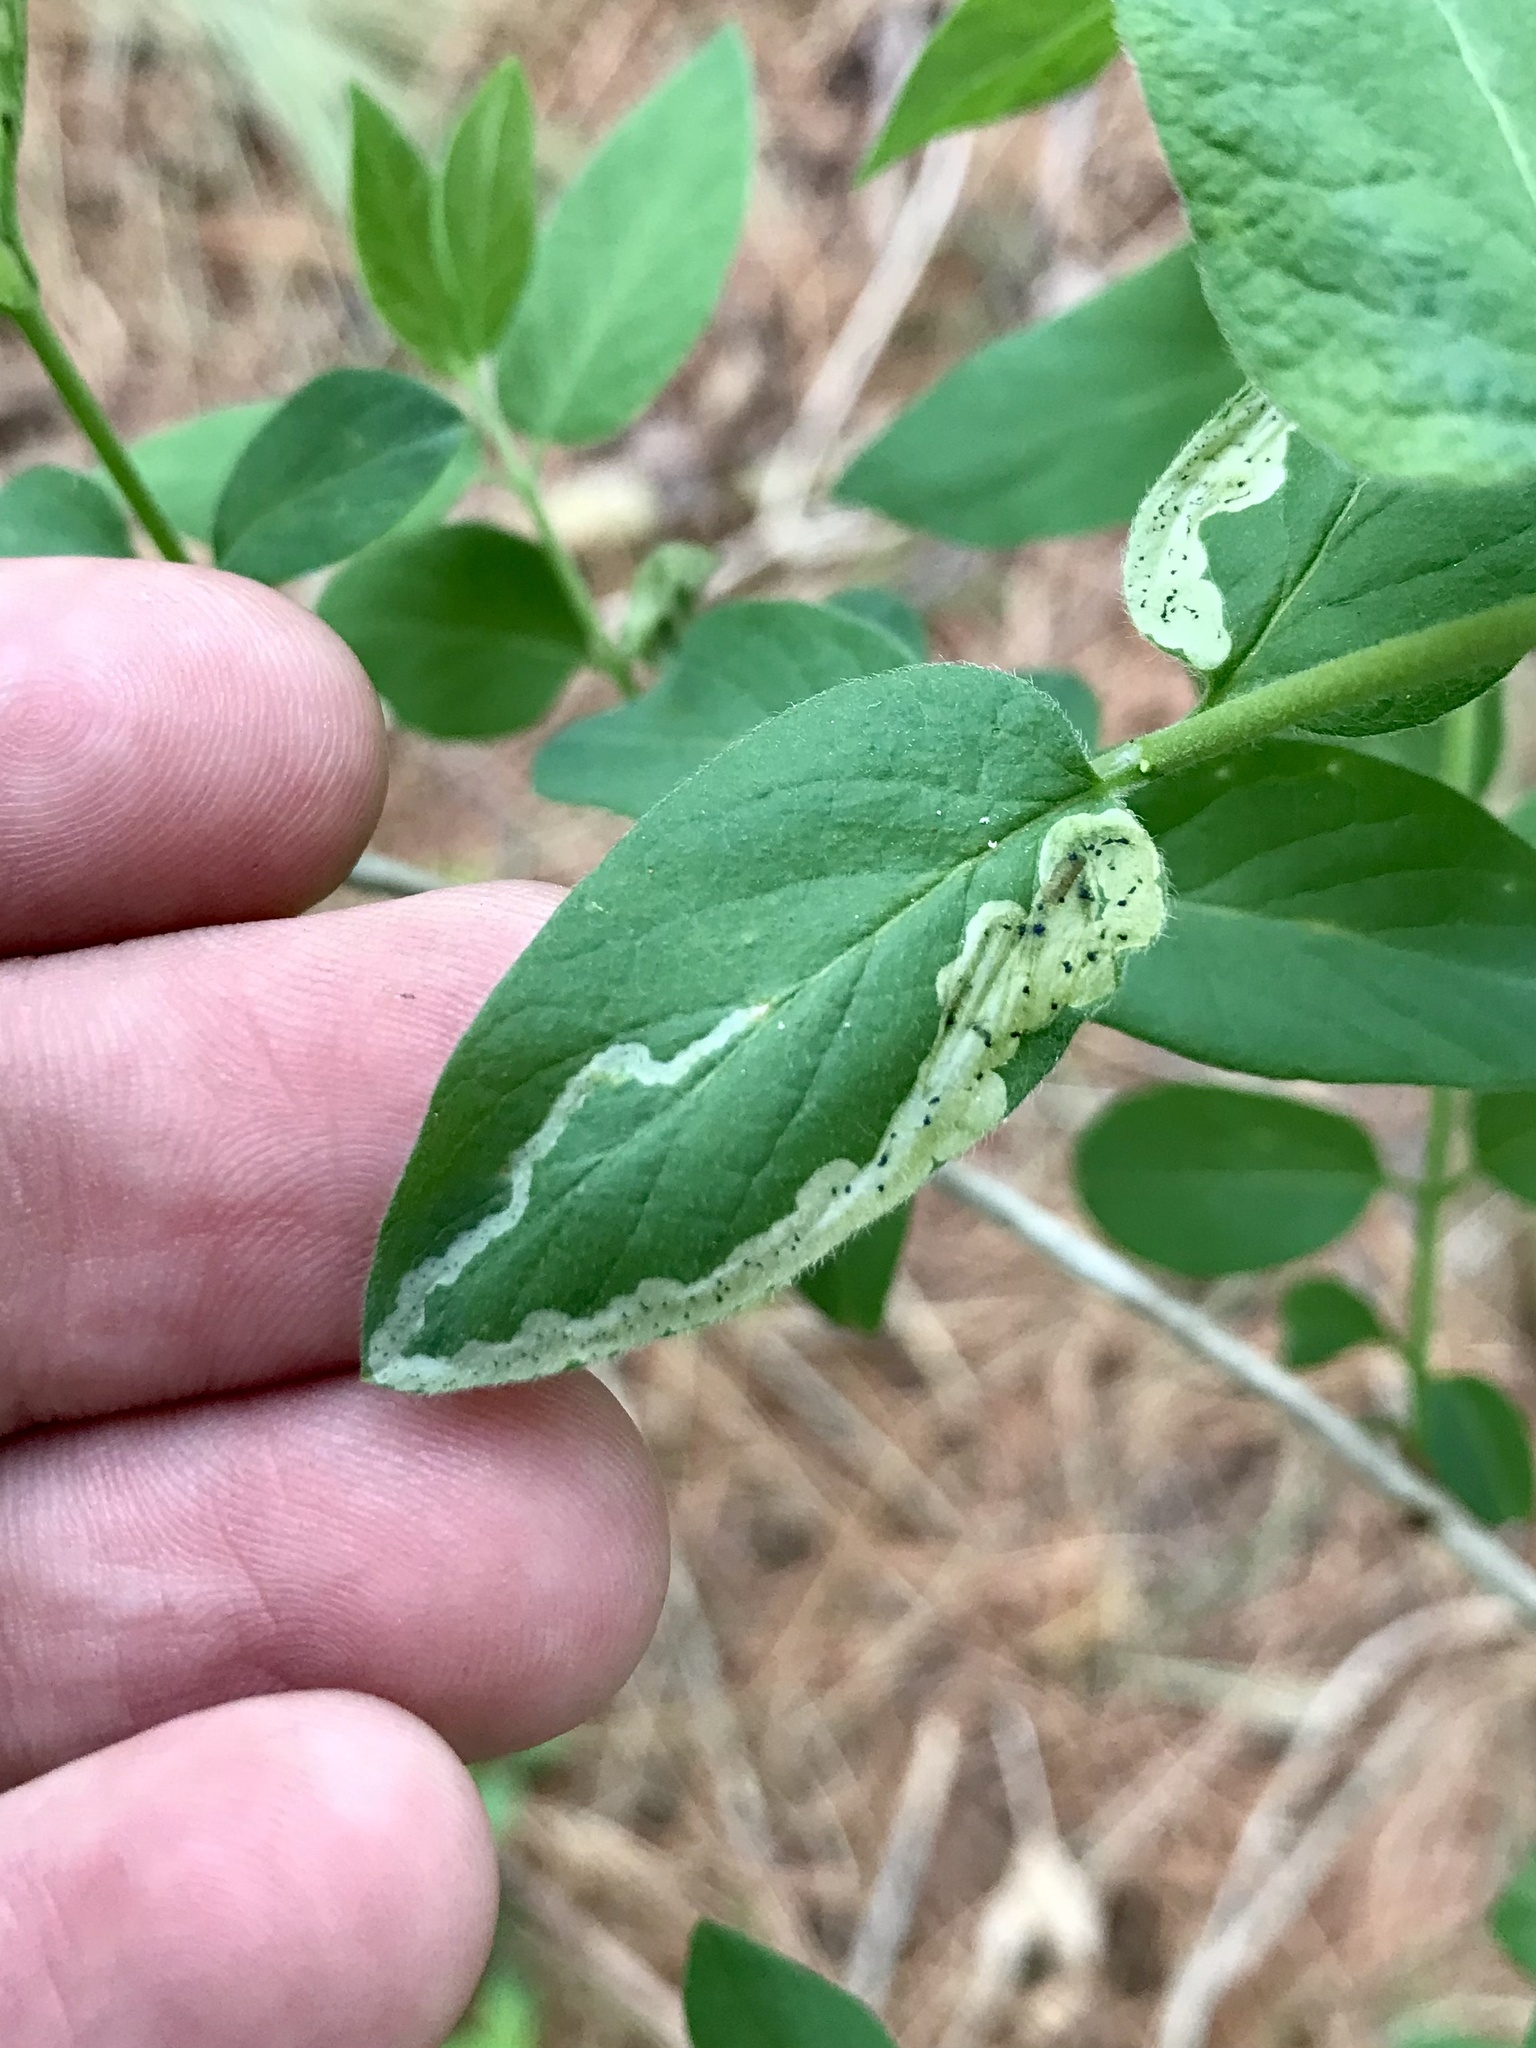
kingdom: Animalia
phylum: Arthropoda
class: Insecta
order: Diptera
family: Agromyzidae
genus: Aulagromyza
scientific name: Aulagromyza cornigera
